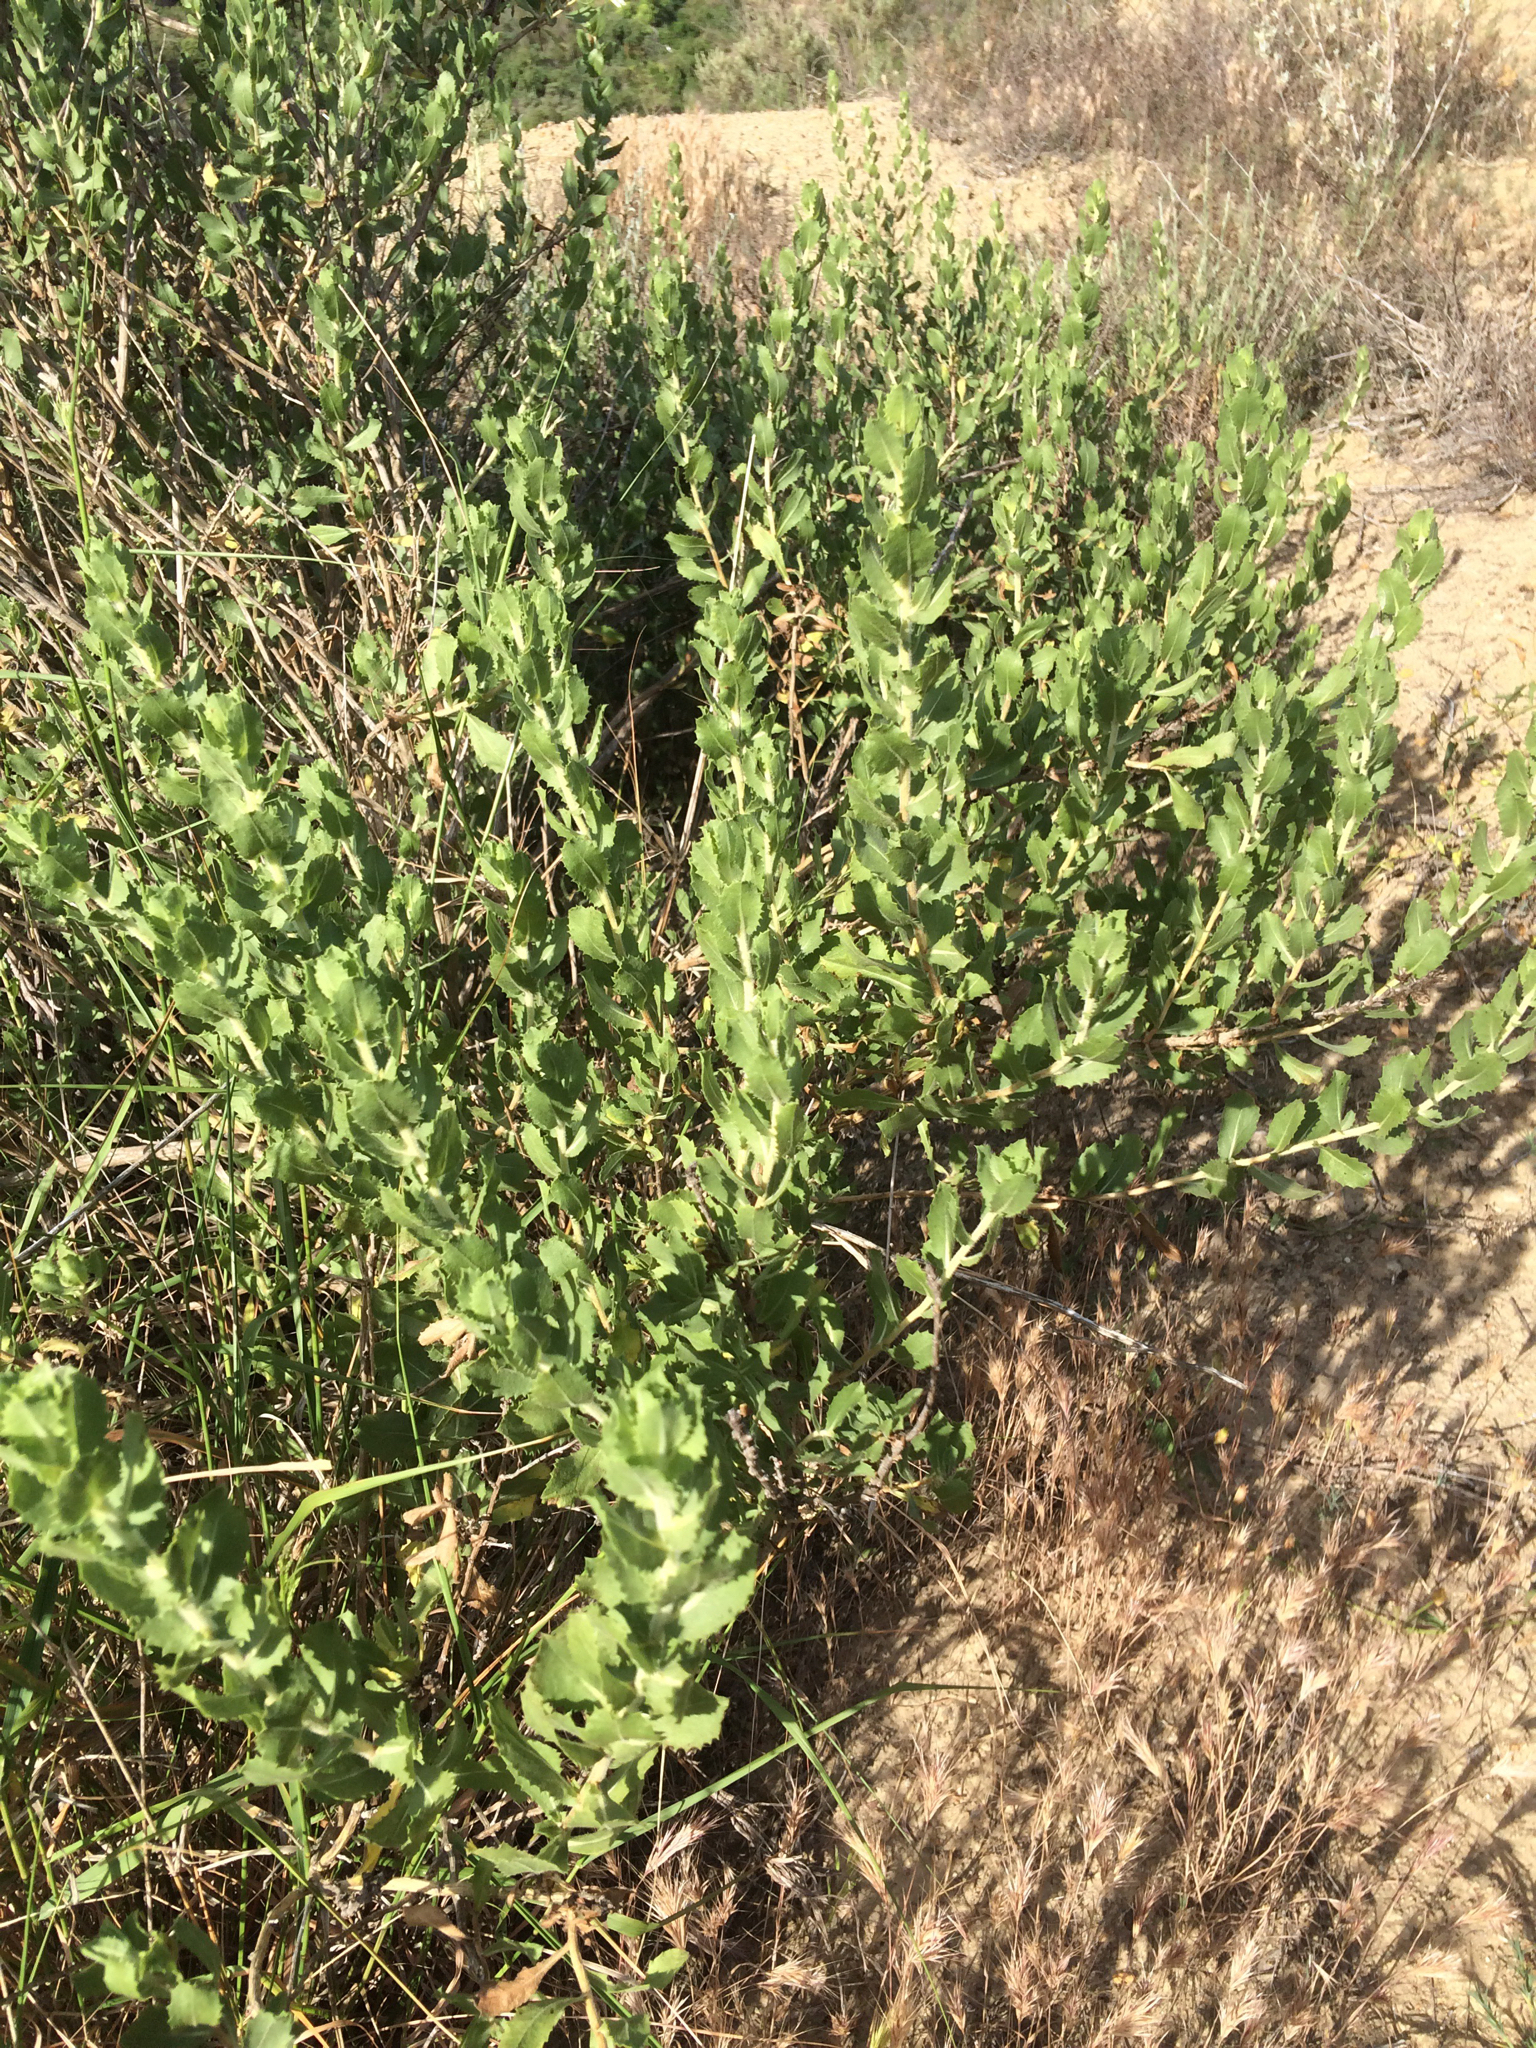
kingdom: Plantae
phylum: Tracheophyta
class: Magnoliopsida
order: Asterales
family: Asteraceae
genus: Hazardia
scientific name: Hazardia squarrosa
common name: Saw-tooth goldenbush
